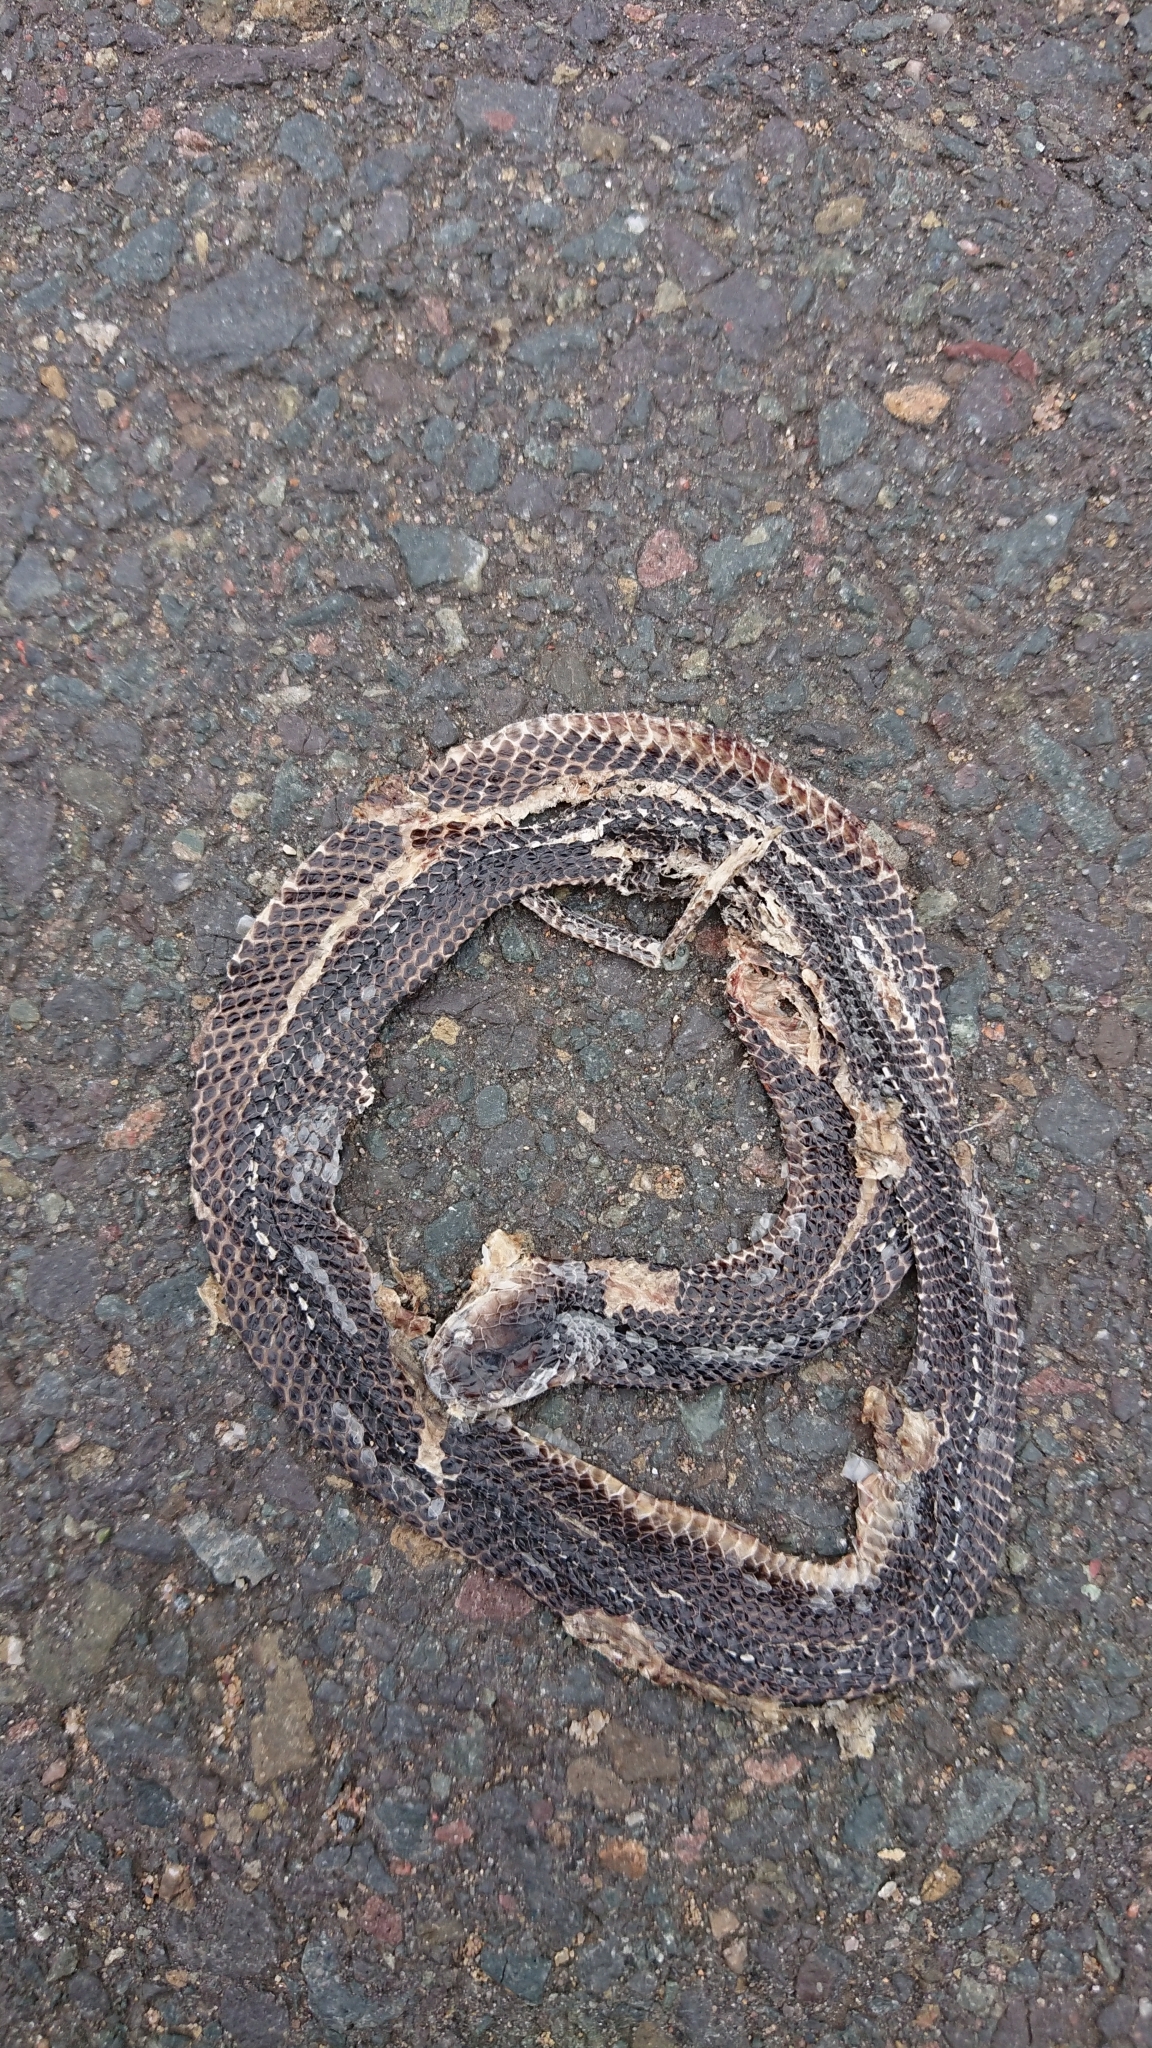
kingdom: Animalia
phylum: Chordata
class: Squamata
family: Lamprophiidae
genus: Gracililima
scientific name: Gracililima nyassae
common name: Black file snake
